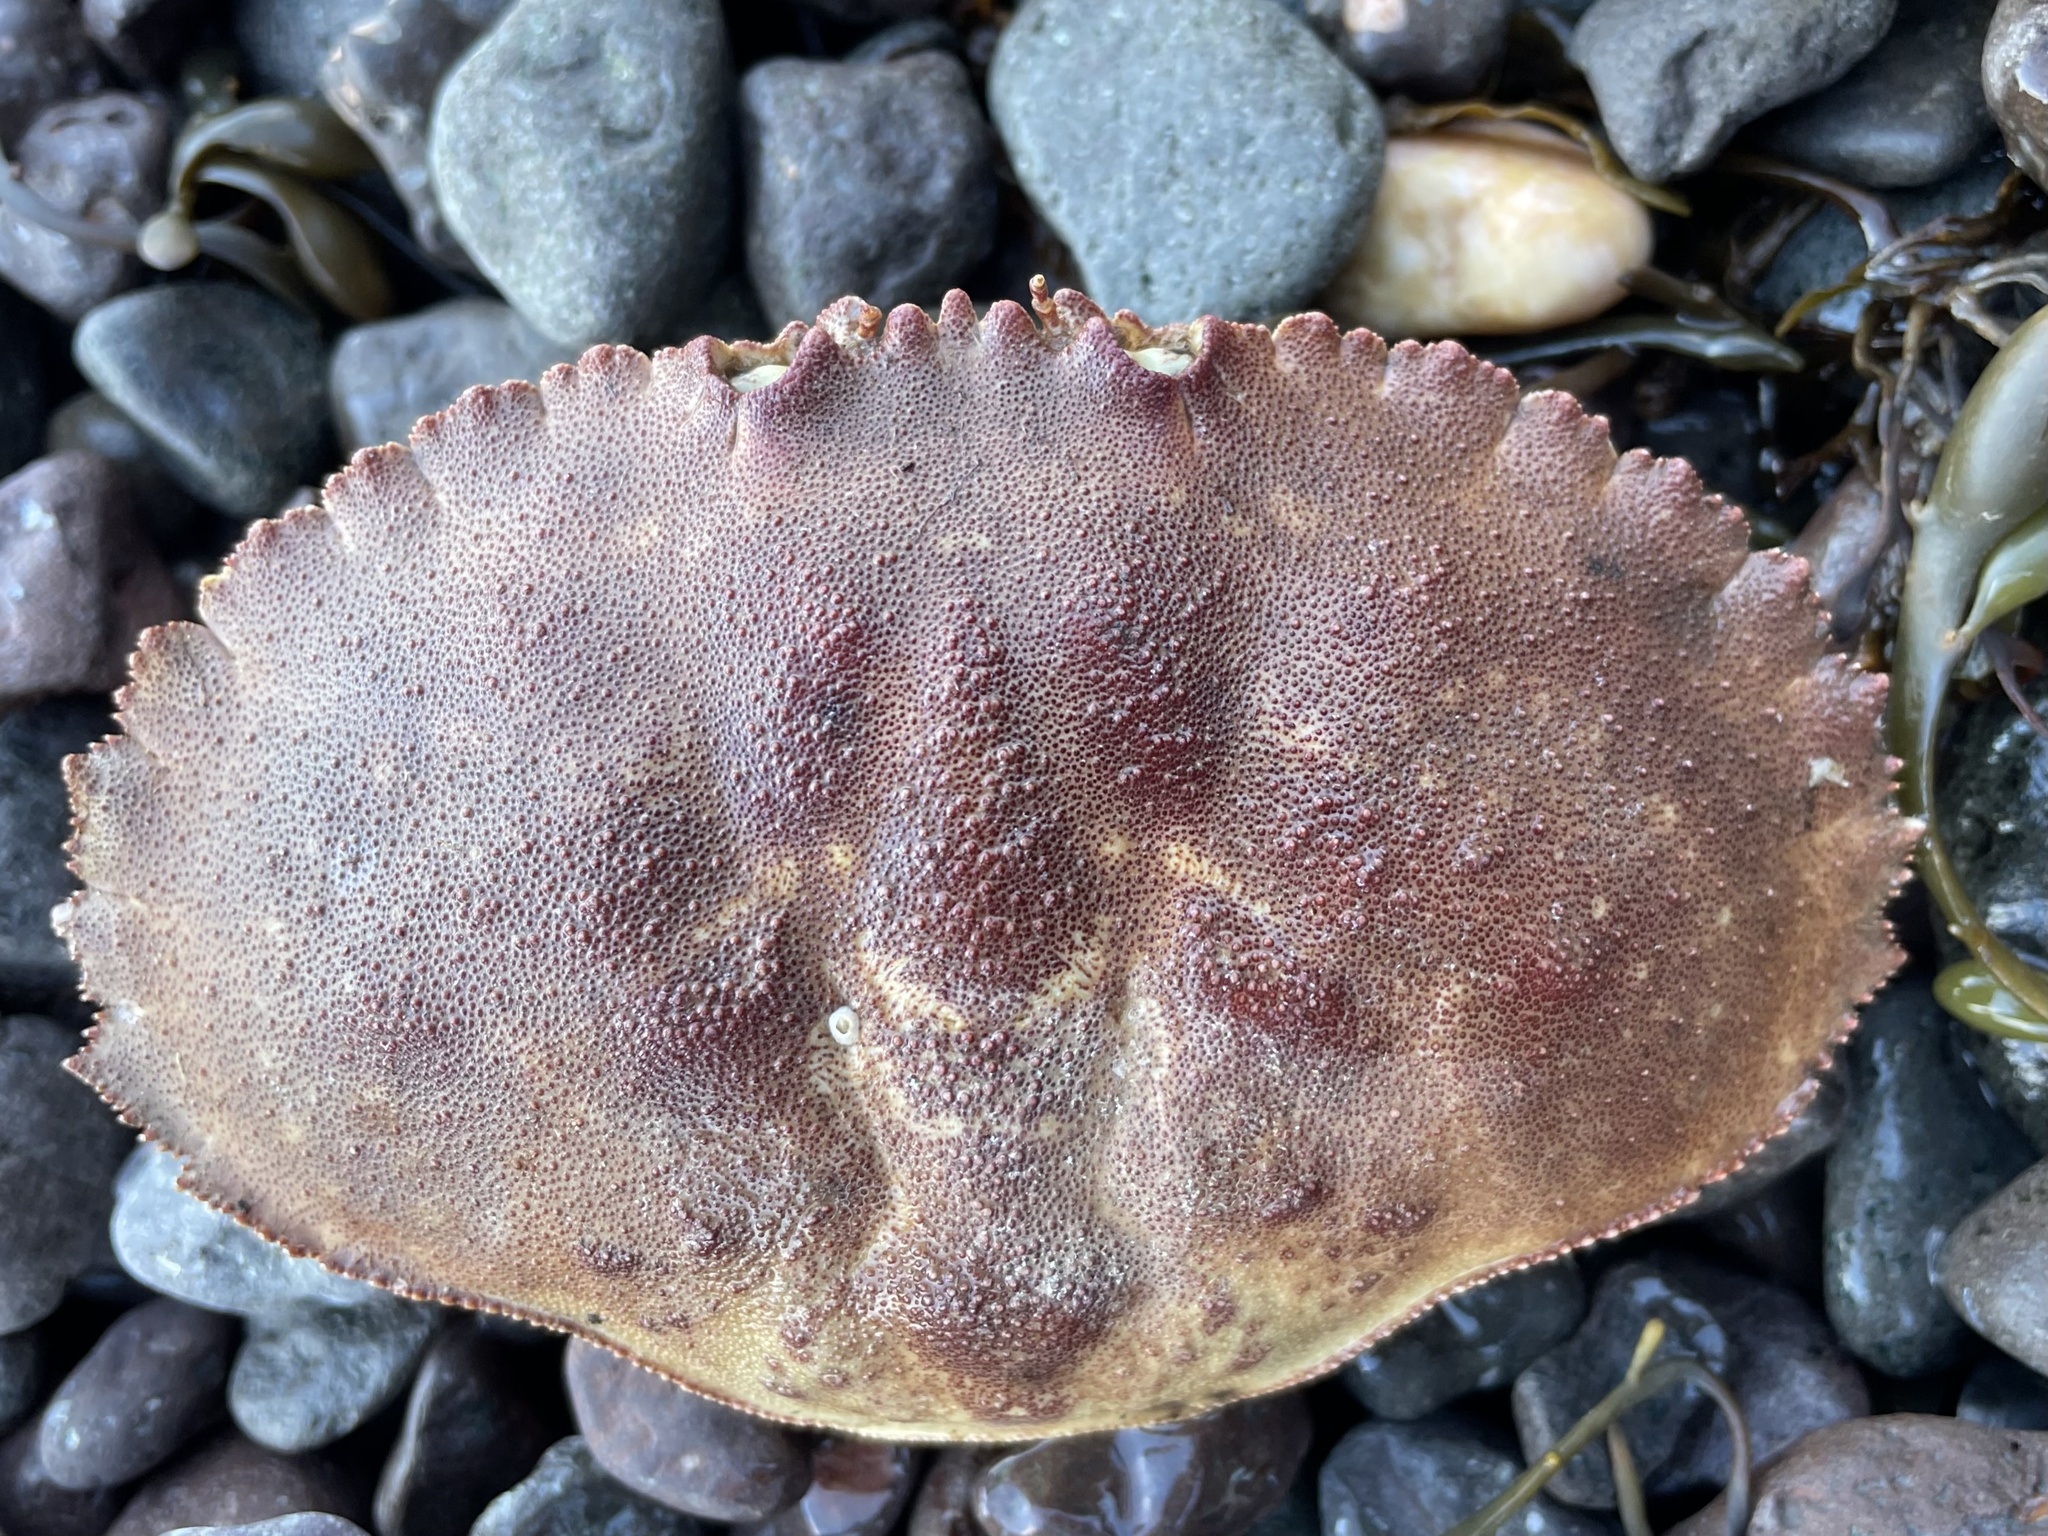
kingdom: Animalia
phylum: Arthropoda
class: Malacostraca
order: Decapoda
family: Cancridae
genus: Cancer
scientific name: Cancer borealis
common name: Jonah crab
